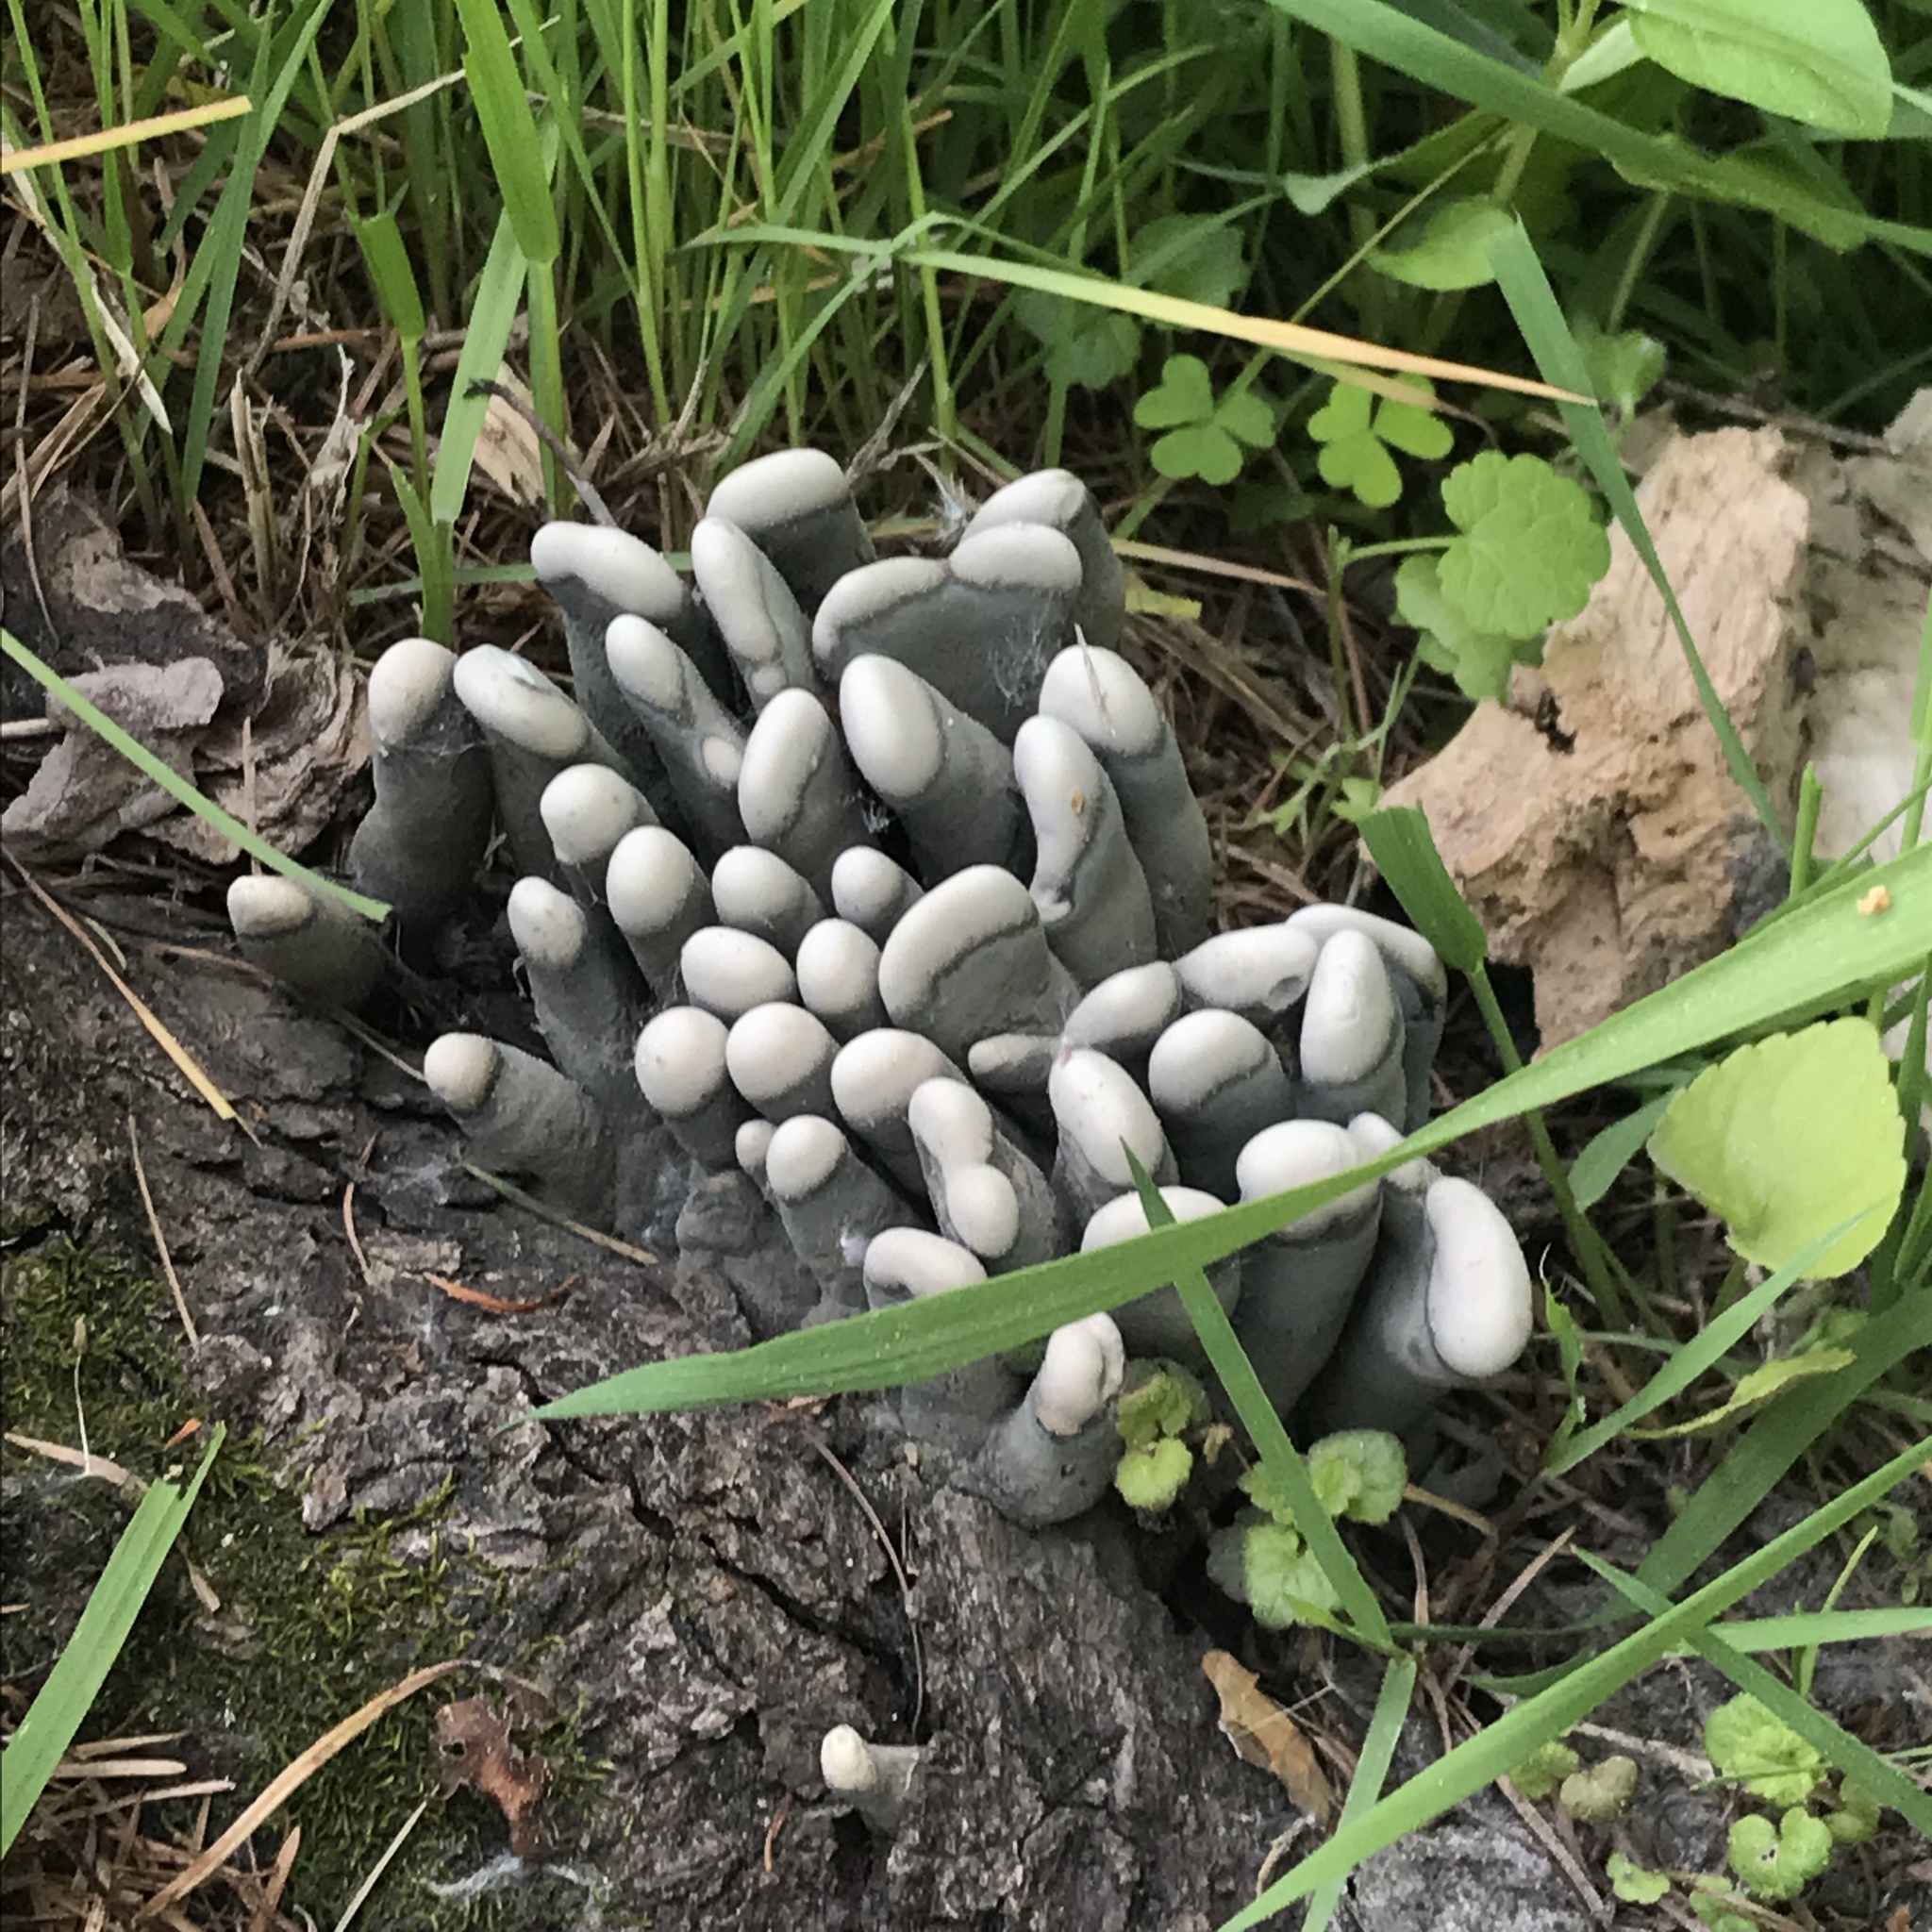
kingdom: Fungi
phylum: Ascomycota
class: Sordariomycetes
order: Xylariales
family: Xylariaceae
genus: Xylaria
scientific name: Xylaria polymorpha
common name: Dead man's fingers
